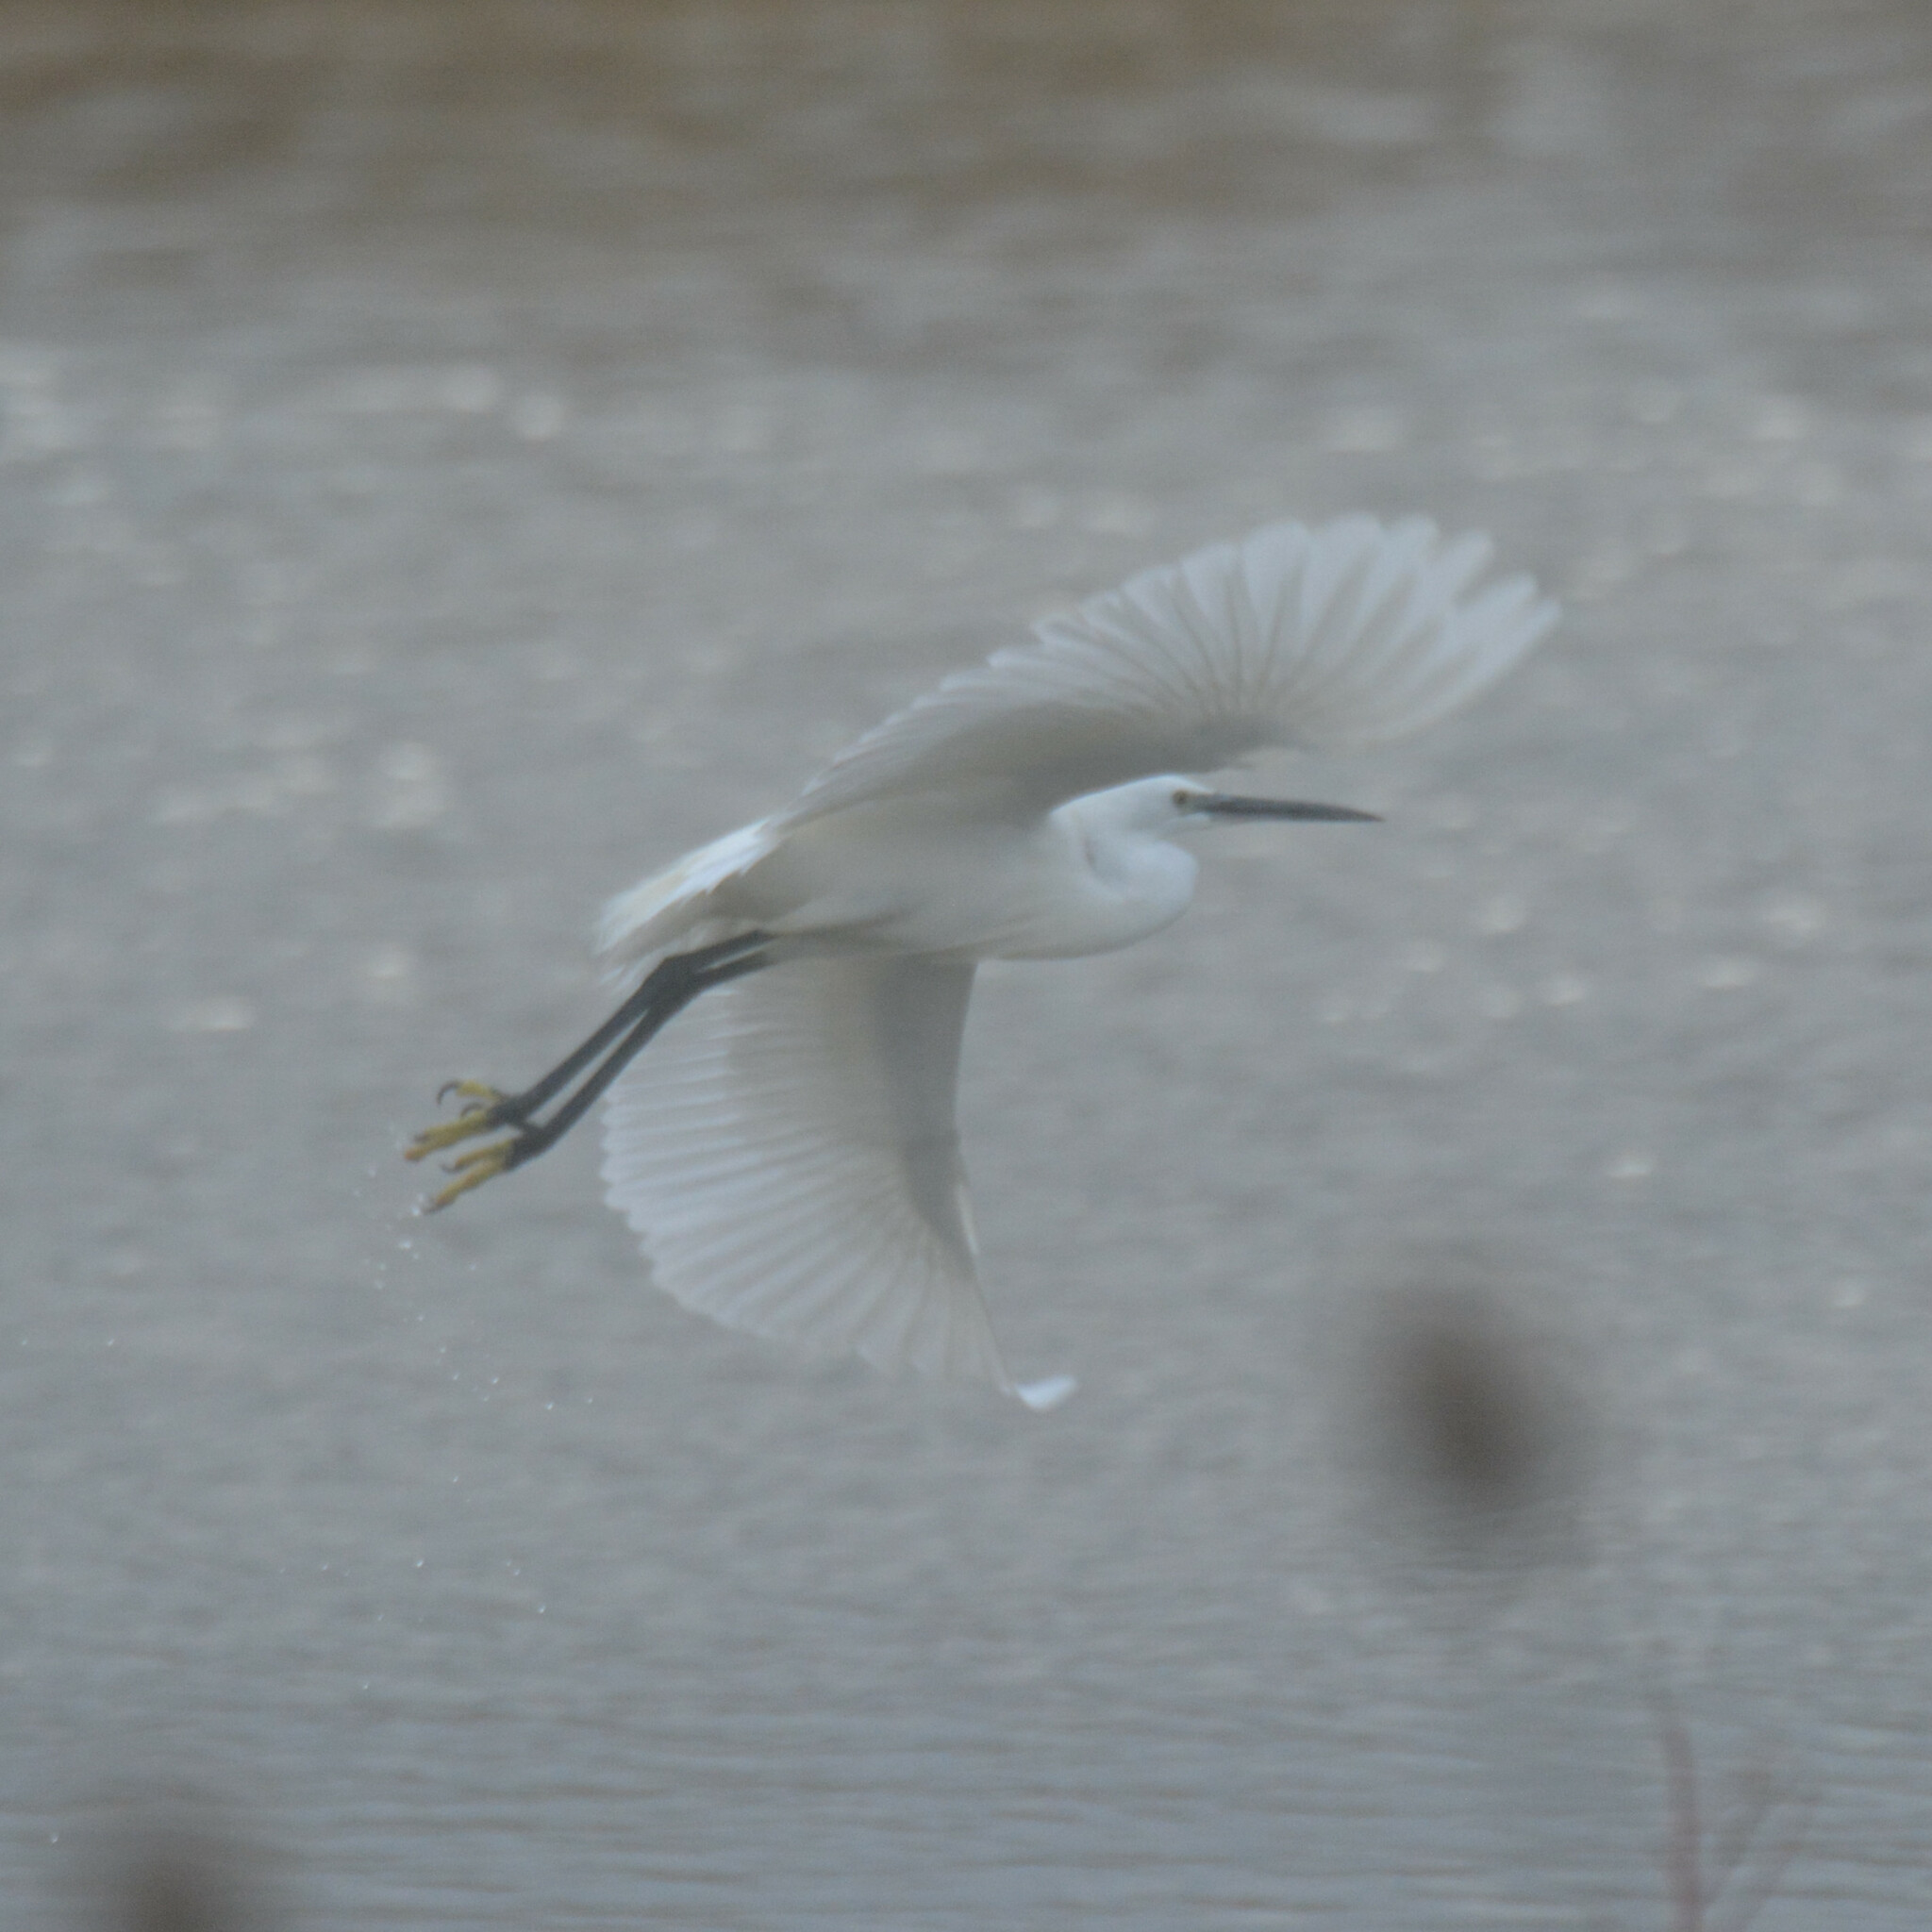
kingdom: Animalia
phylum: Chordata
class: Aves
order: Pelecaniformes
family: Ardeidae
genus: Egretta
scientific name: Egretta garzetta
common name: Little egret
